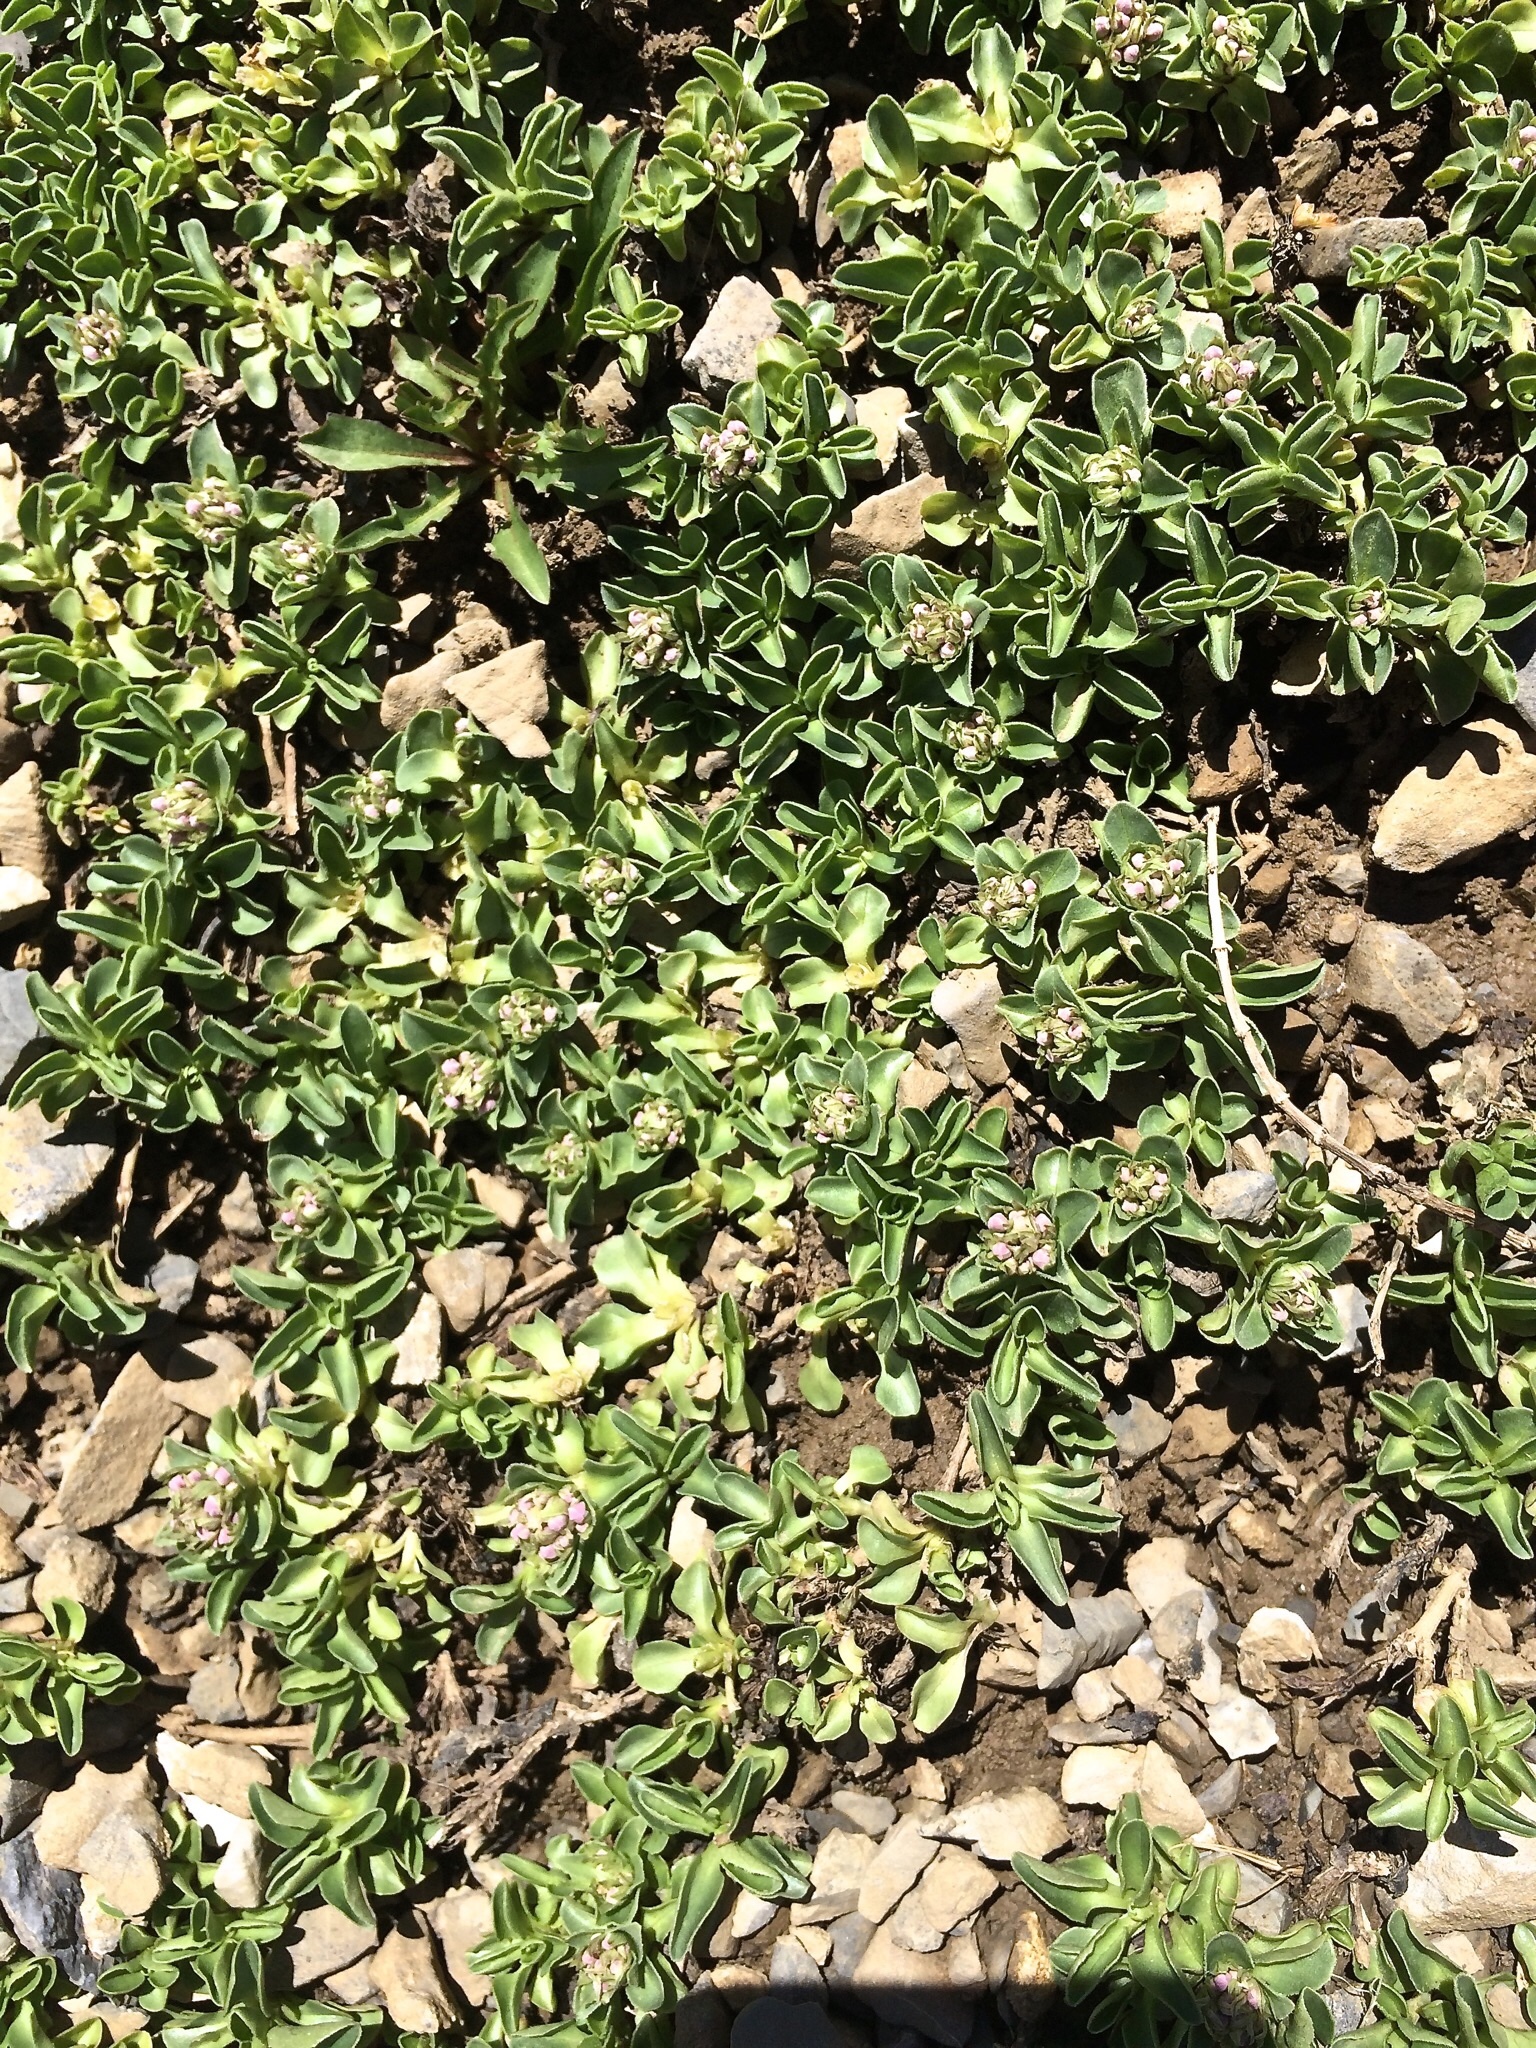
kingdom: Plantae
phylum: Tracheophyta
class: Magnoliopsida
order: Dipsacales
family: Caprifoliaceae
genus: Valeriana
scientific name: Valeriana supina
